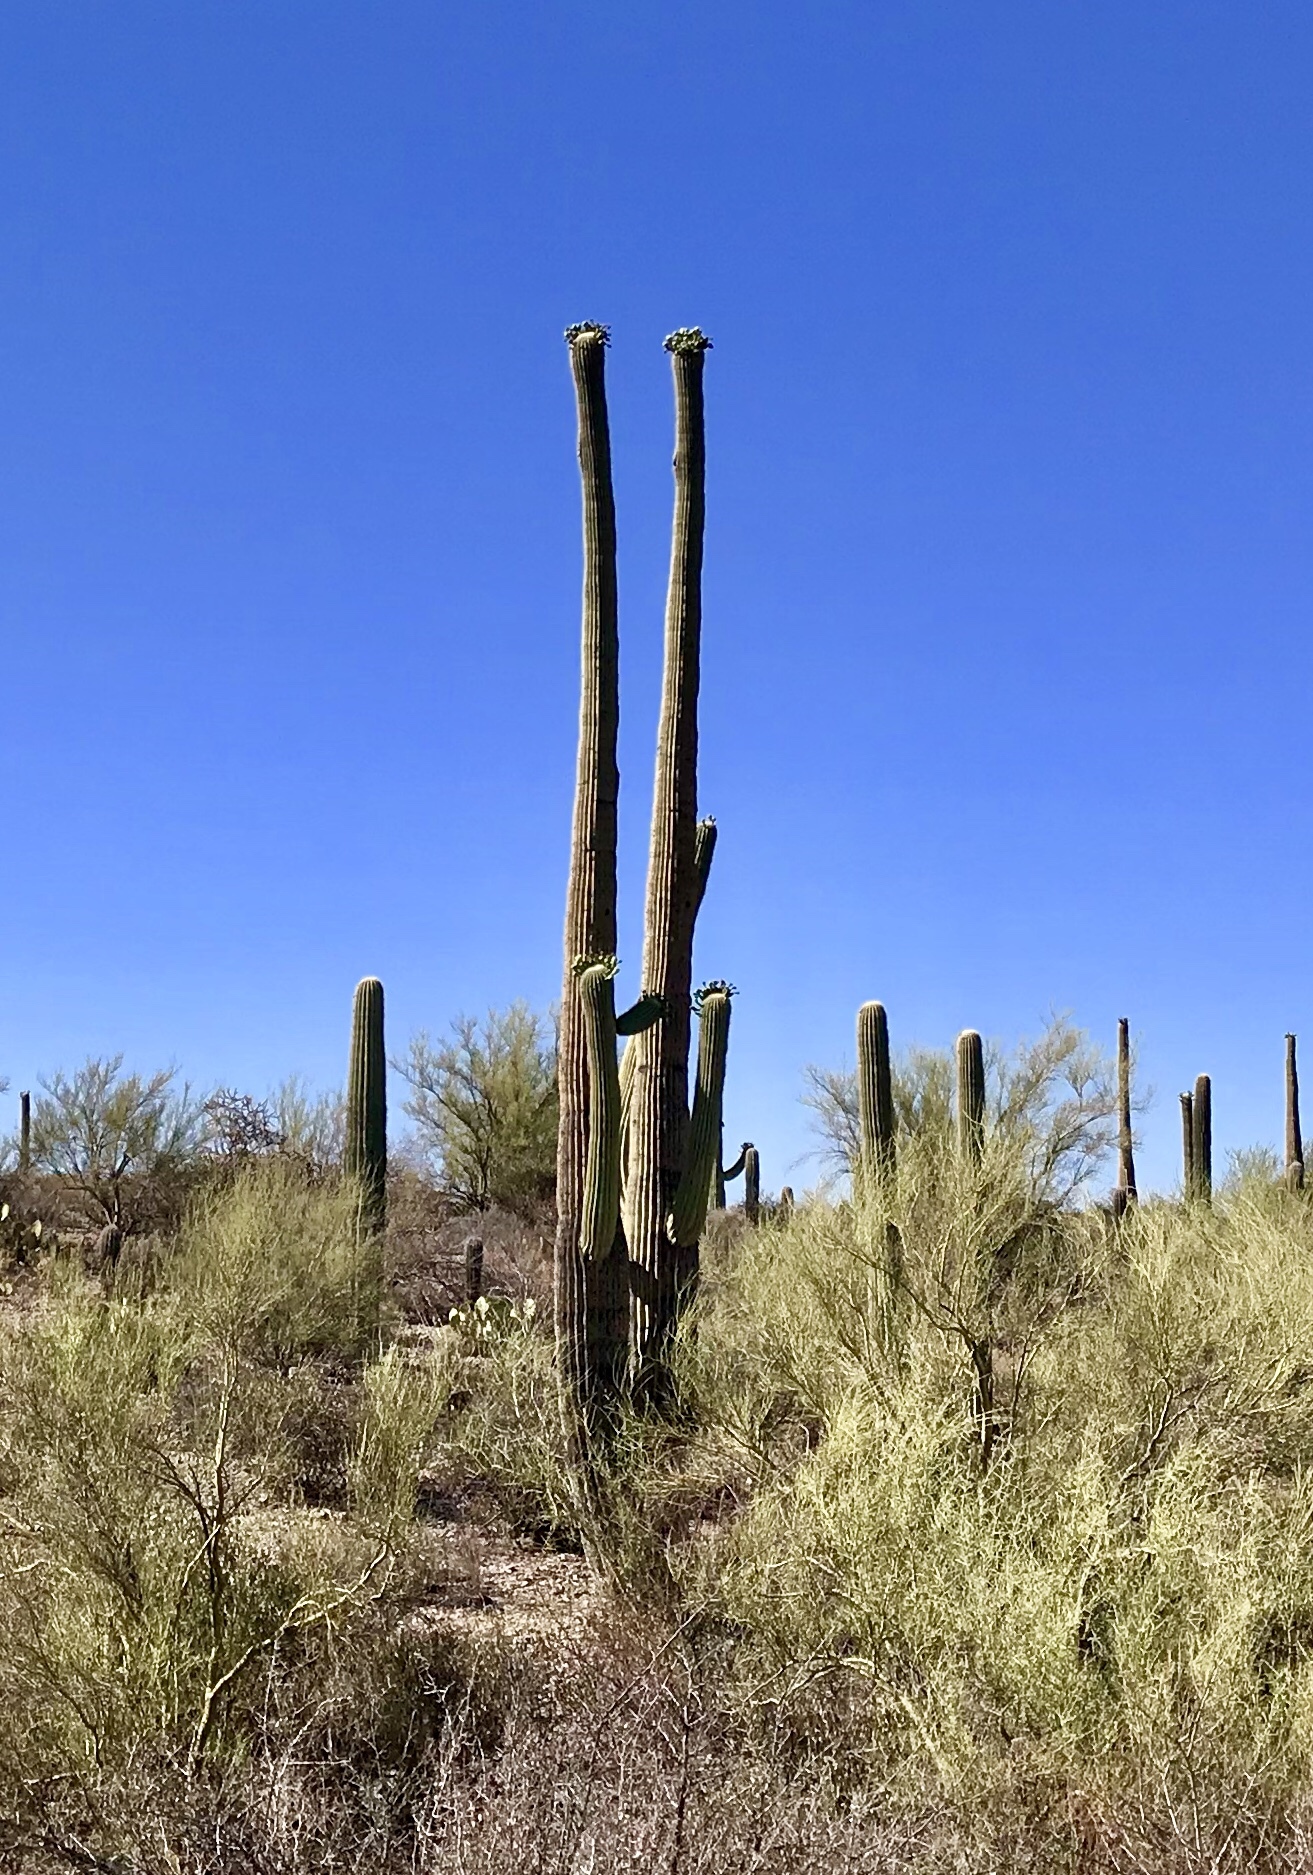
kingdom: Plantae
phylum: Tracheophyta
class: Magnoliopsida
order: Caryophyllales
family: Cactaceae
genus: Carnegiea
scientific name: Carnegiea gigantea
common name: Saguaro
